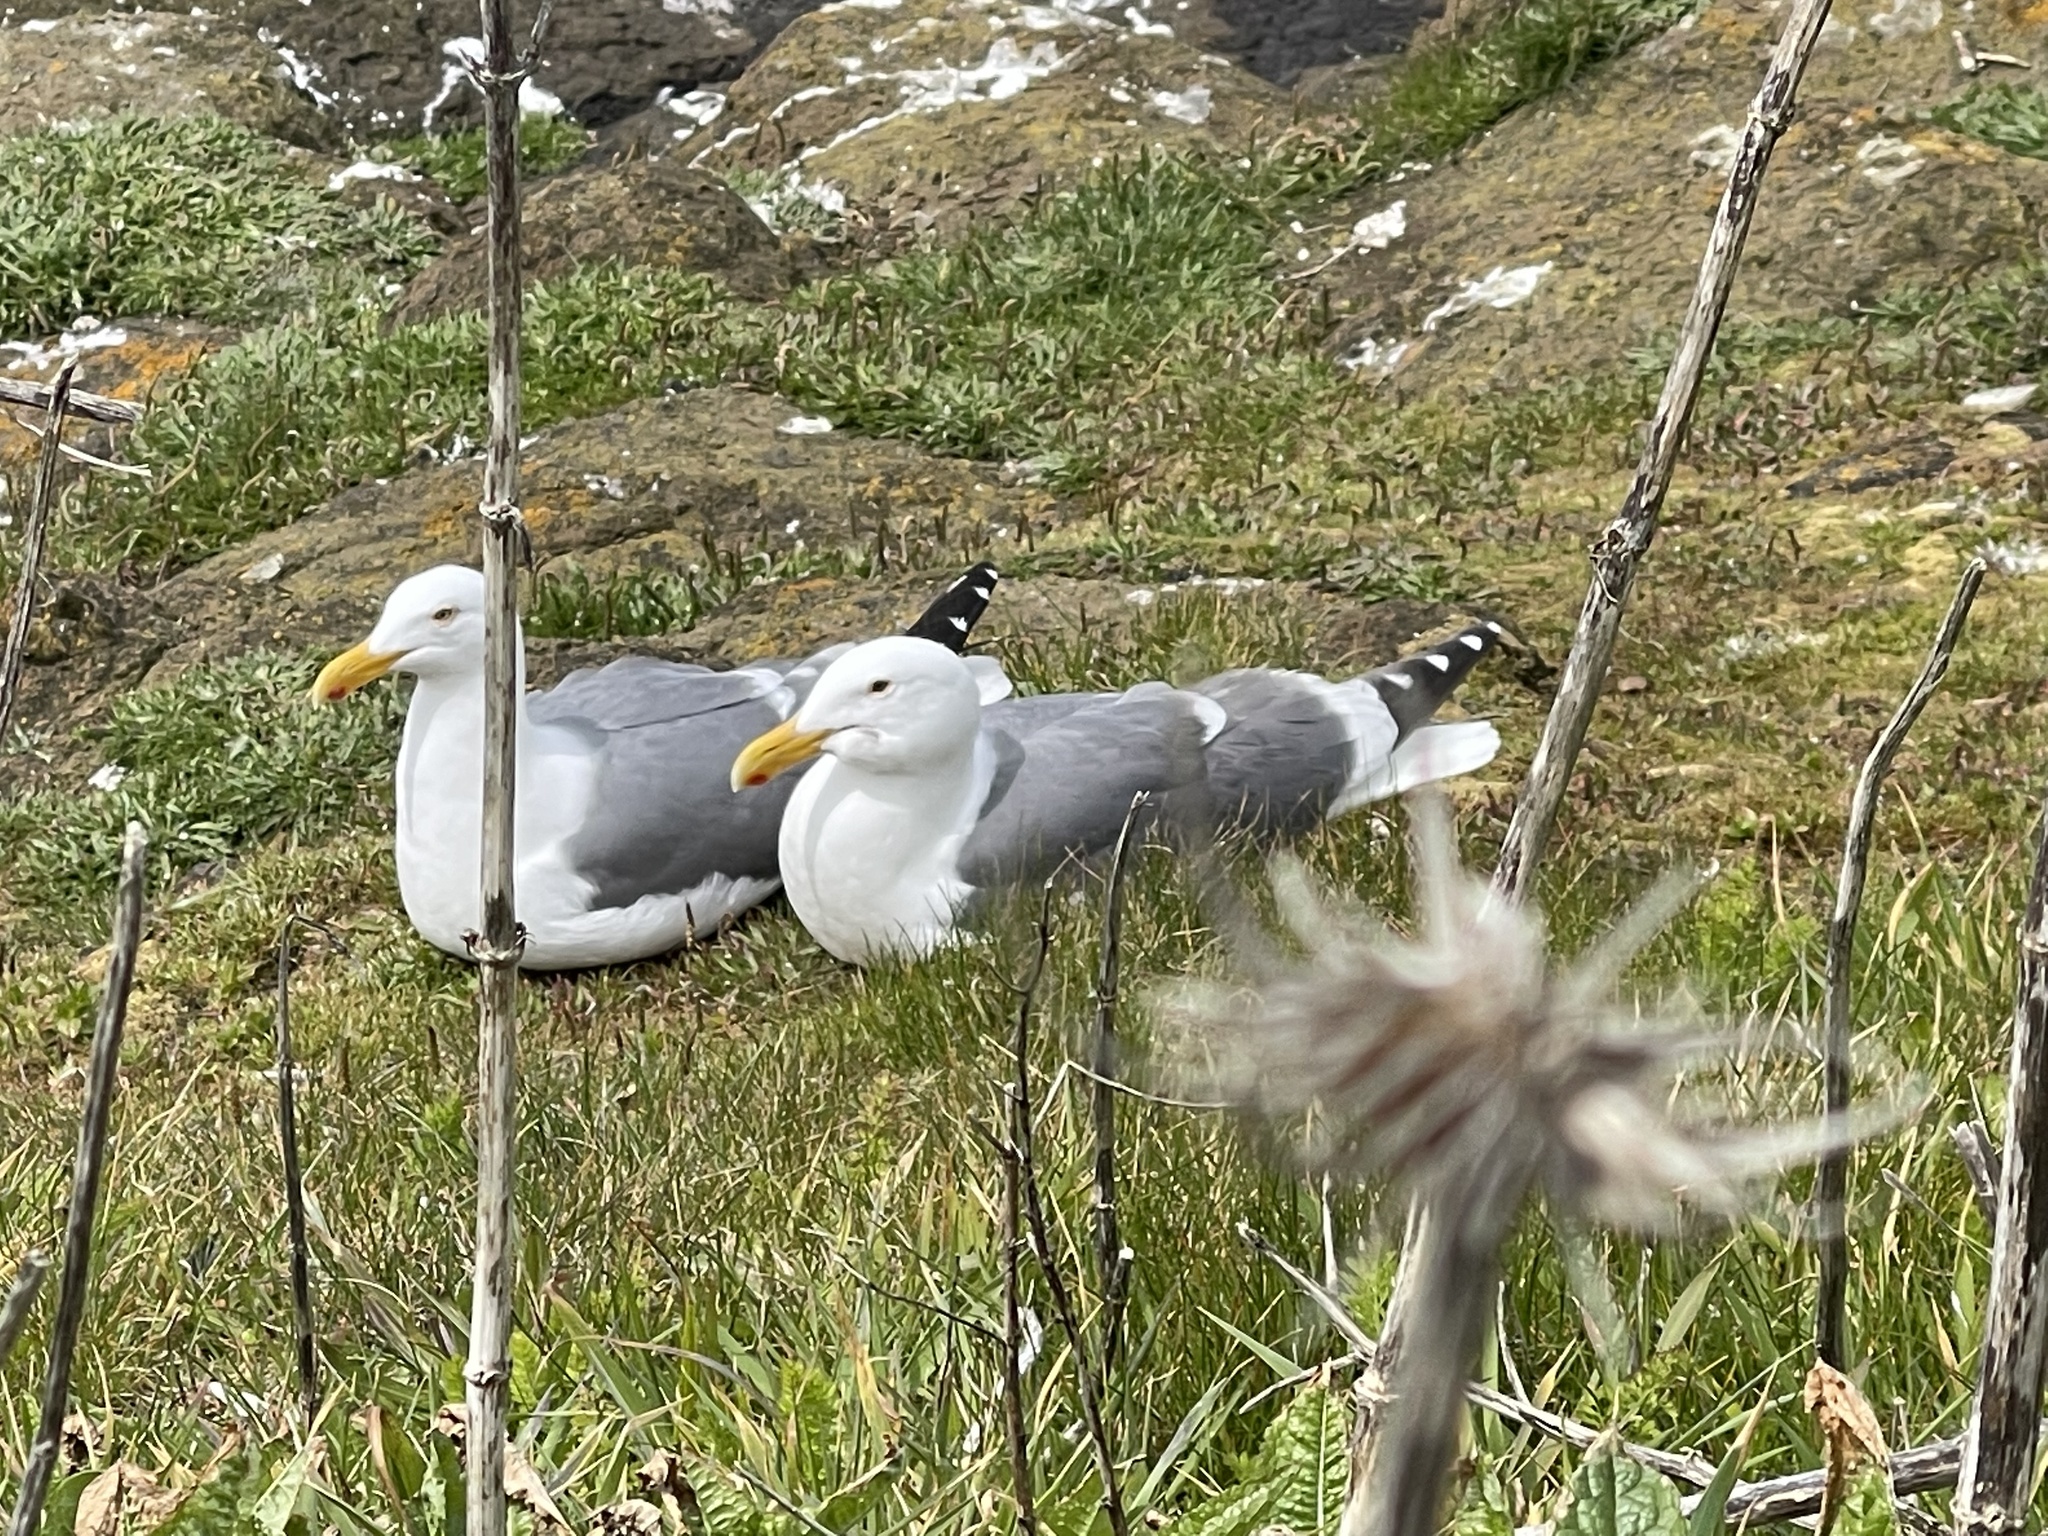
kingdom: Animalia
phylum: Chordata
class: Aves
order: Charadriiformes
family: Laridae
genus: Larus
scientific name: Larus occidentalis
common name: Western gull
